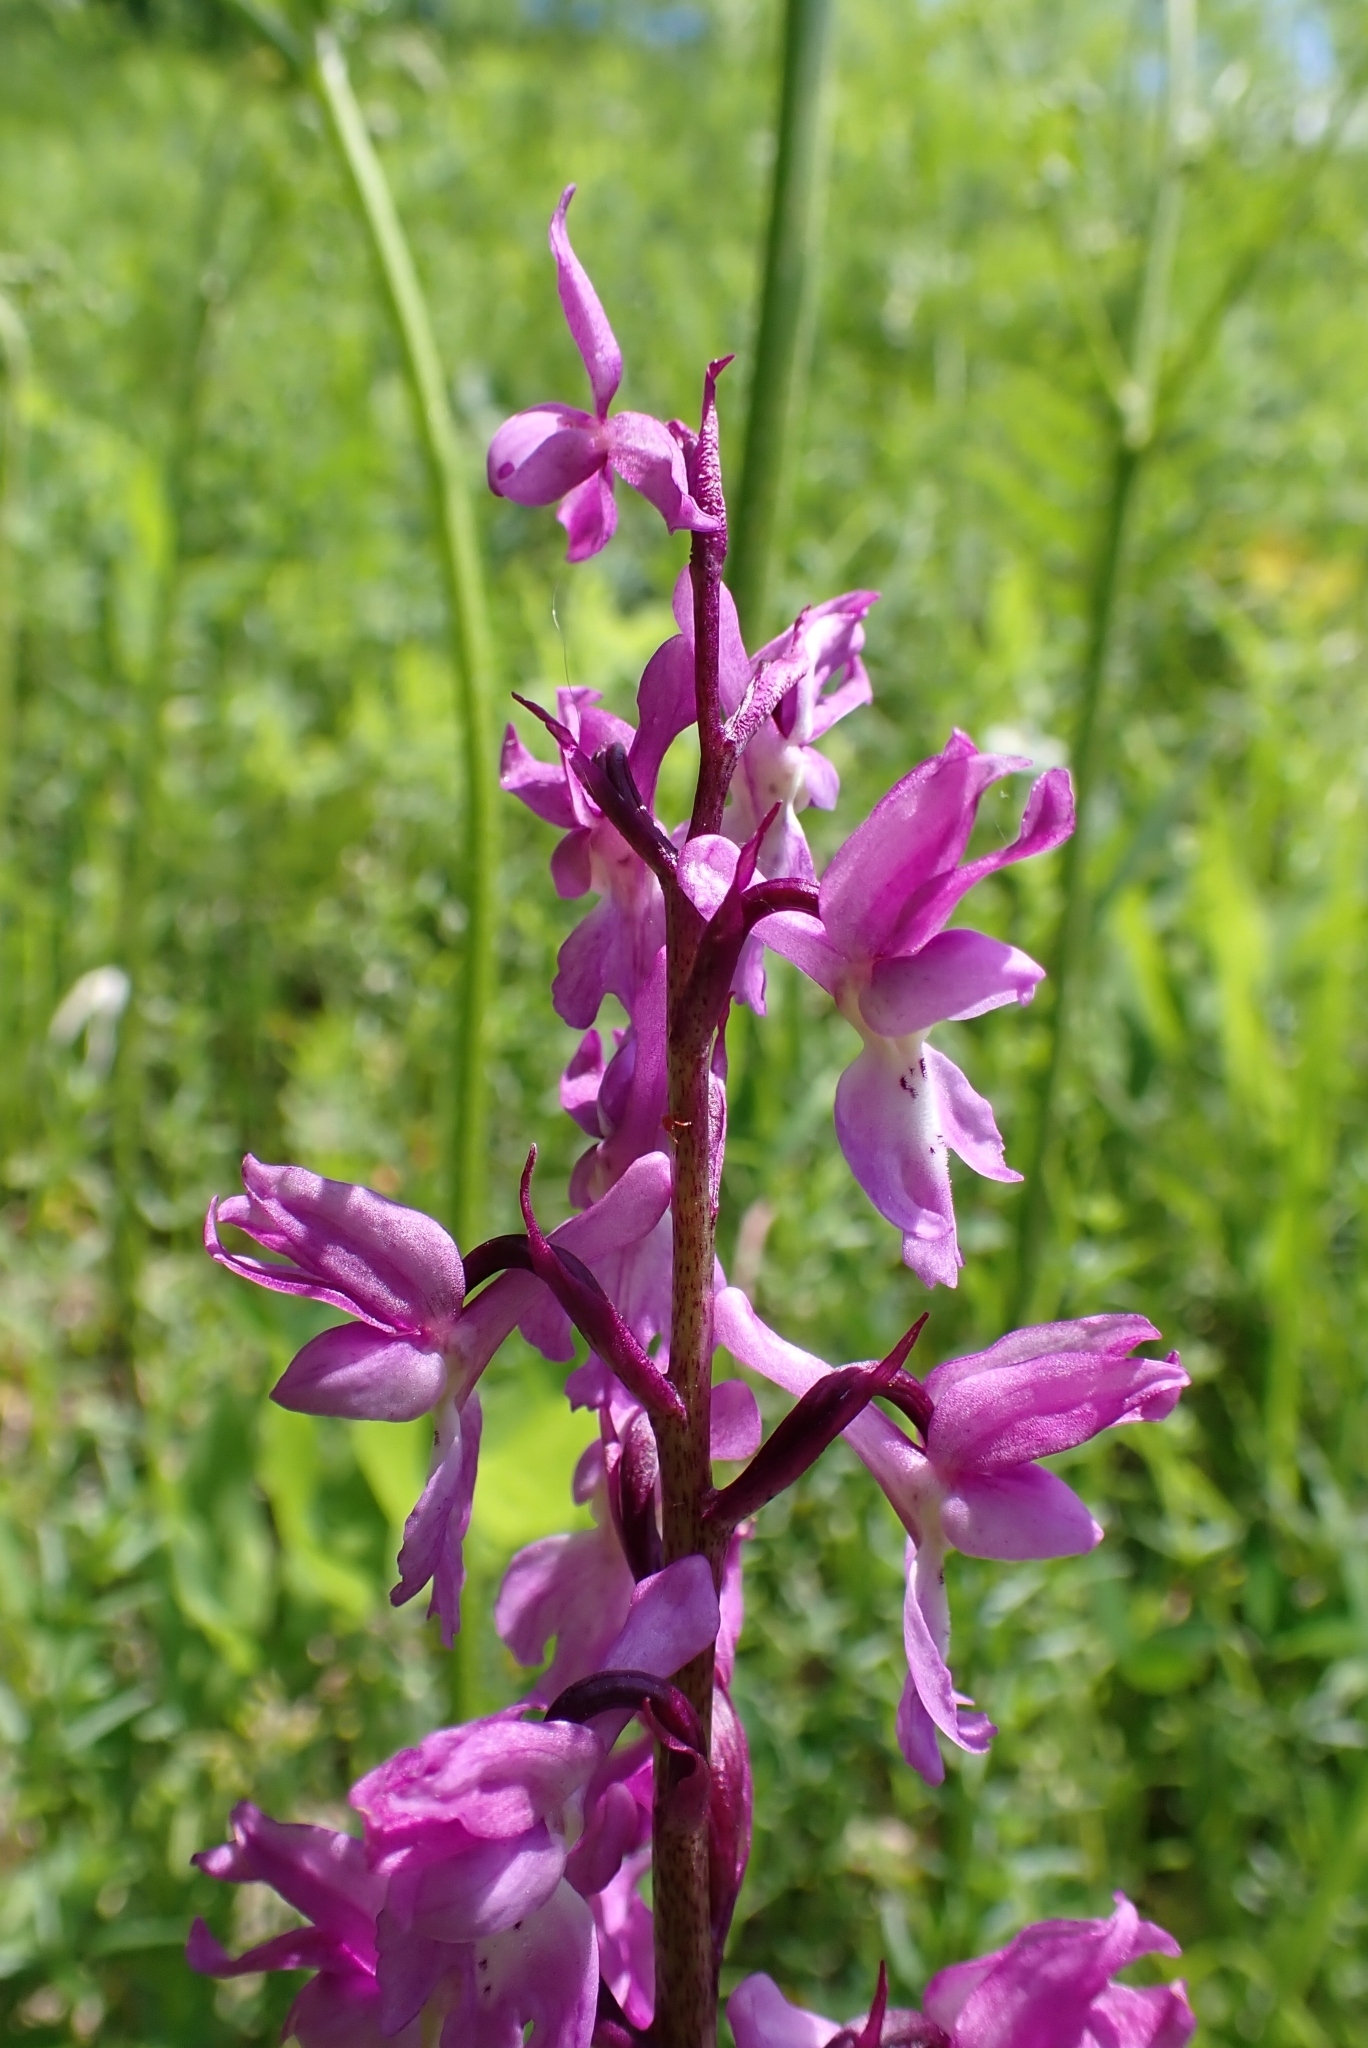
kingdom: Plantae
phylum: Tracheophyta
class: Liliopsida
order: Asparagales
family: Orchidaceae
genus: Orchis
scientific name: Orchis mascula
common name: Early-purple orchid
